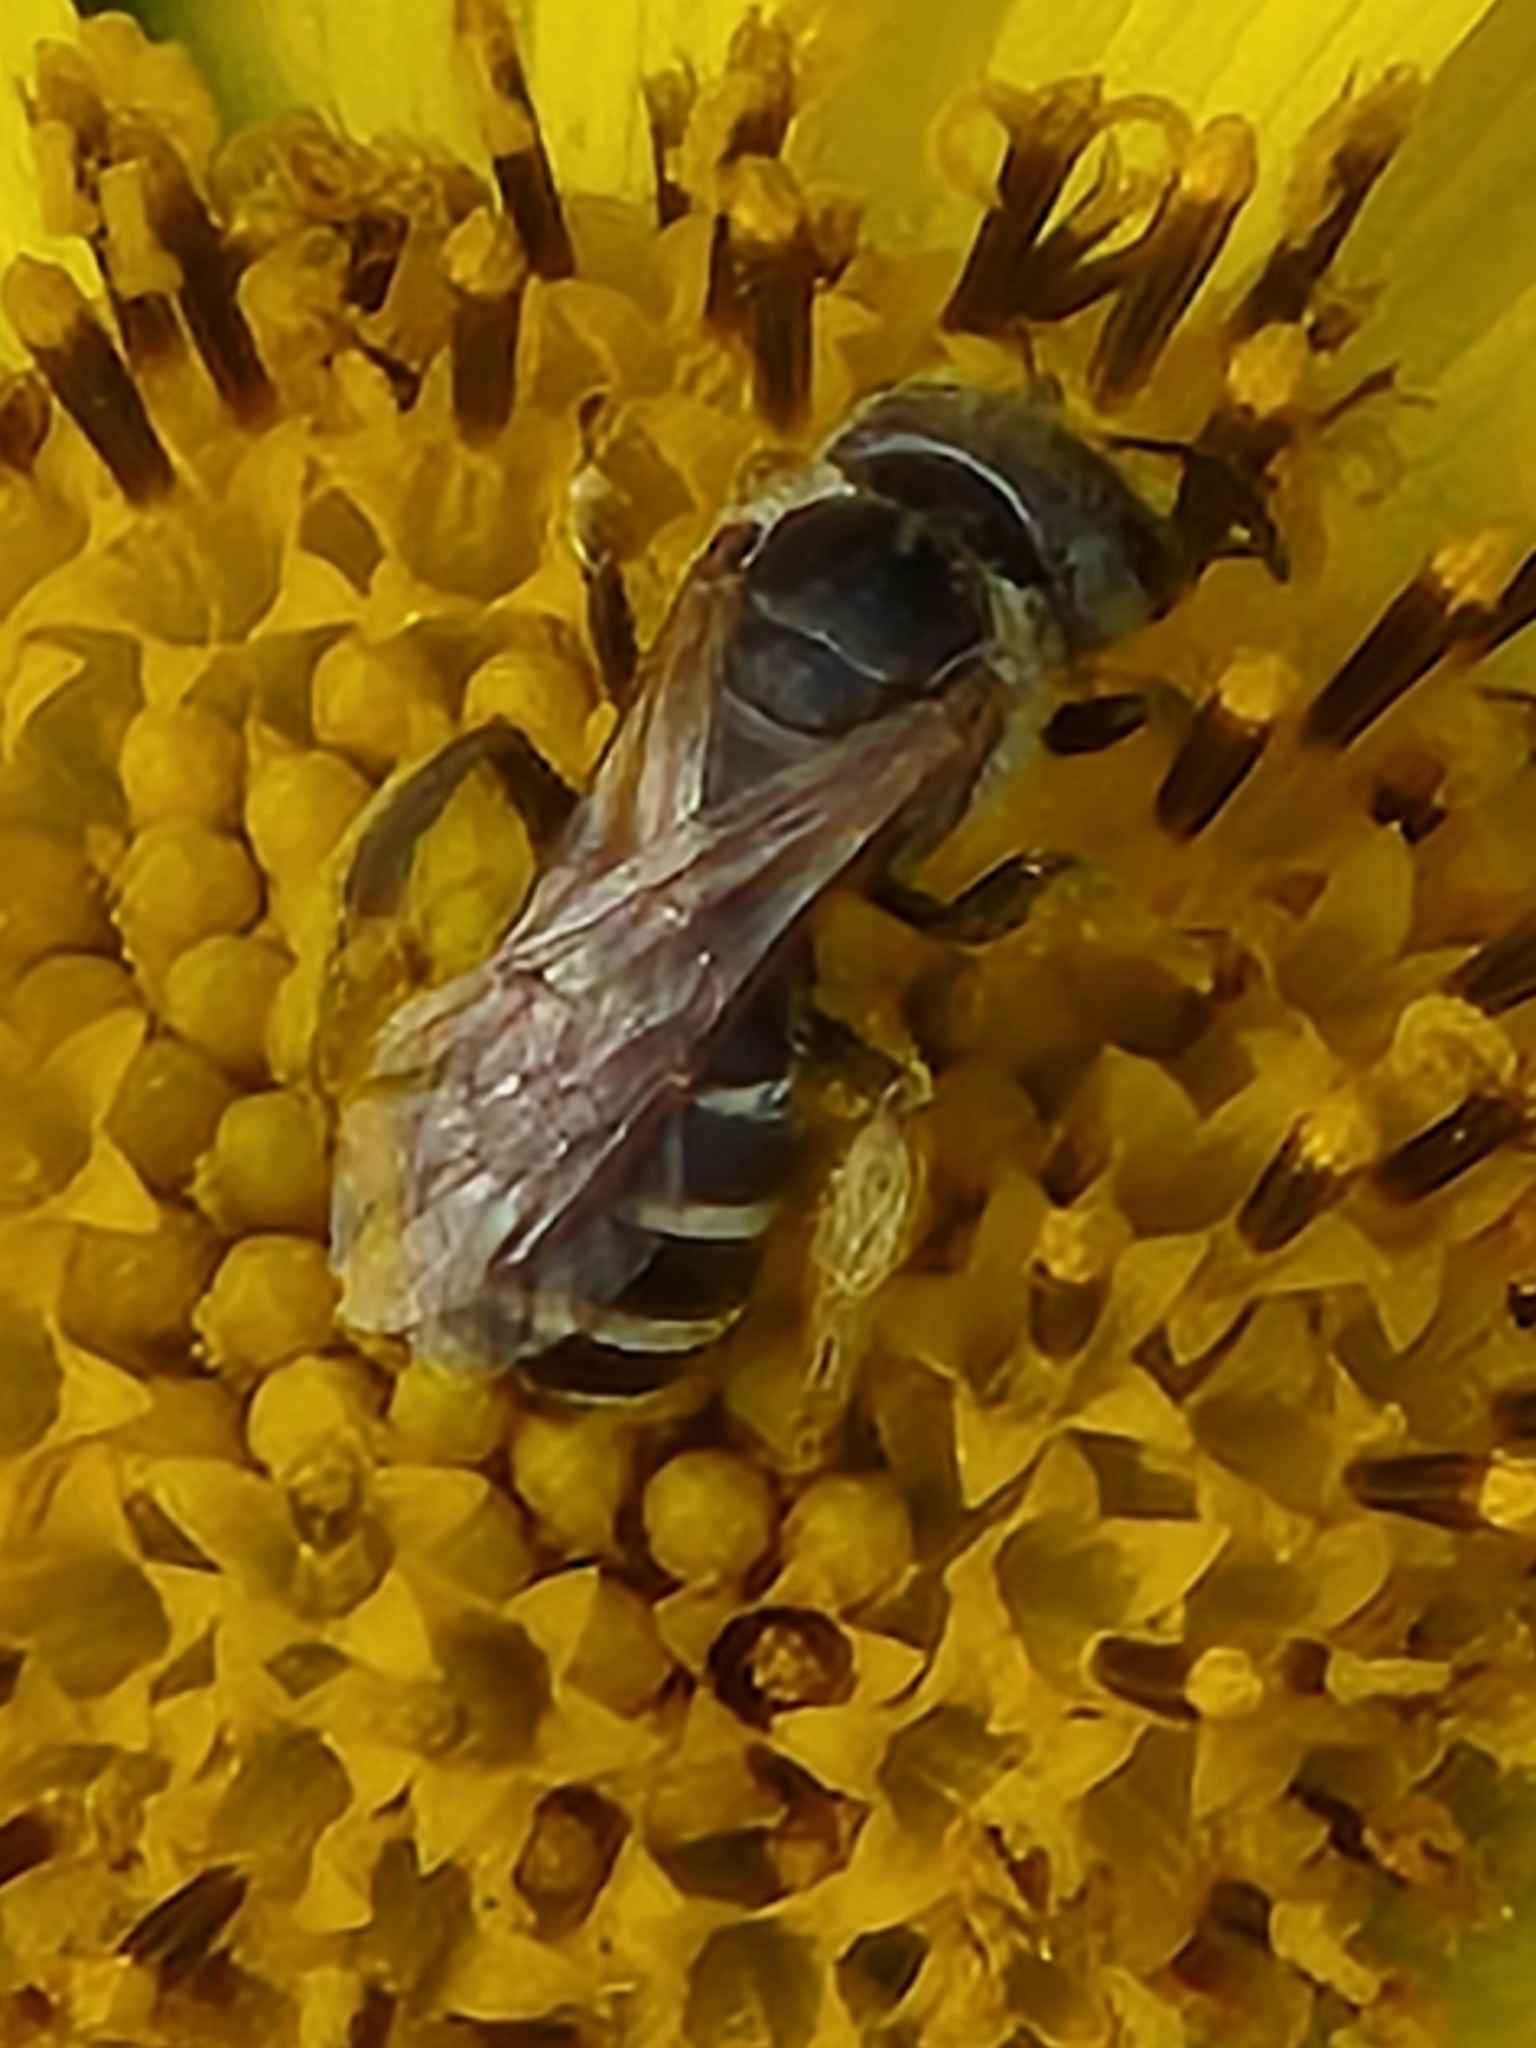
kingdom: Animalia
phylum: Arthropoda
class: Insecta
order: Hymenoptera
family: Halictidae
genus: Halictus
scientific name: Halictus ligatus
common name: Ligated furrow bee
